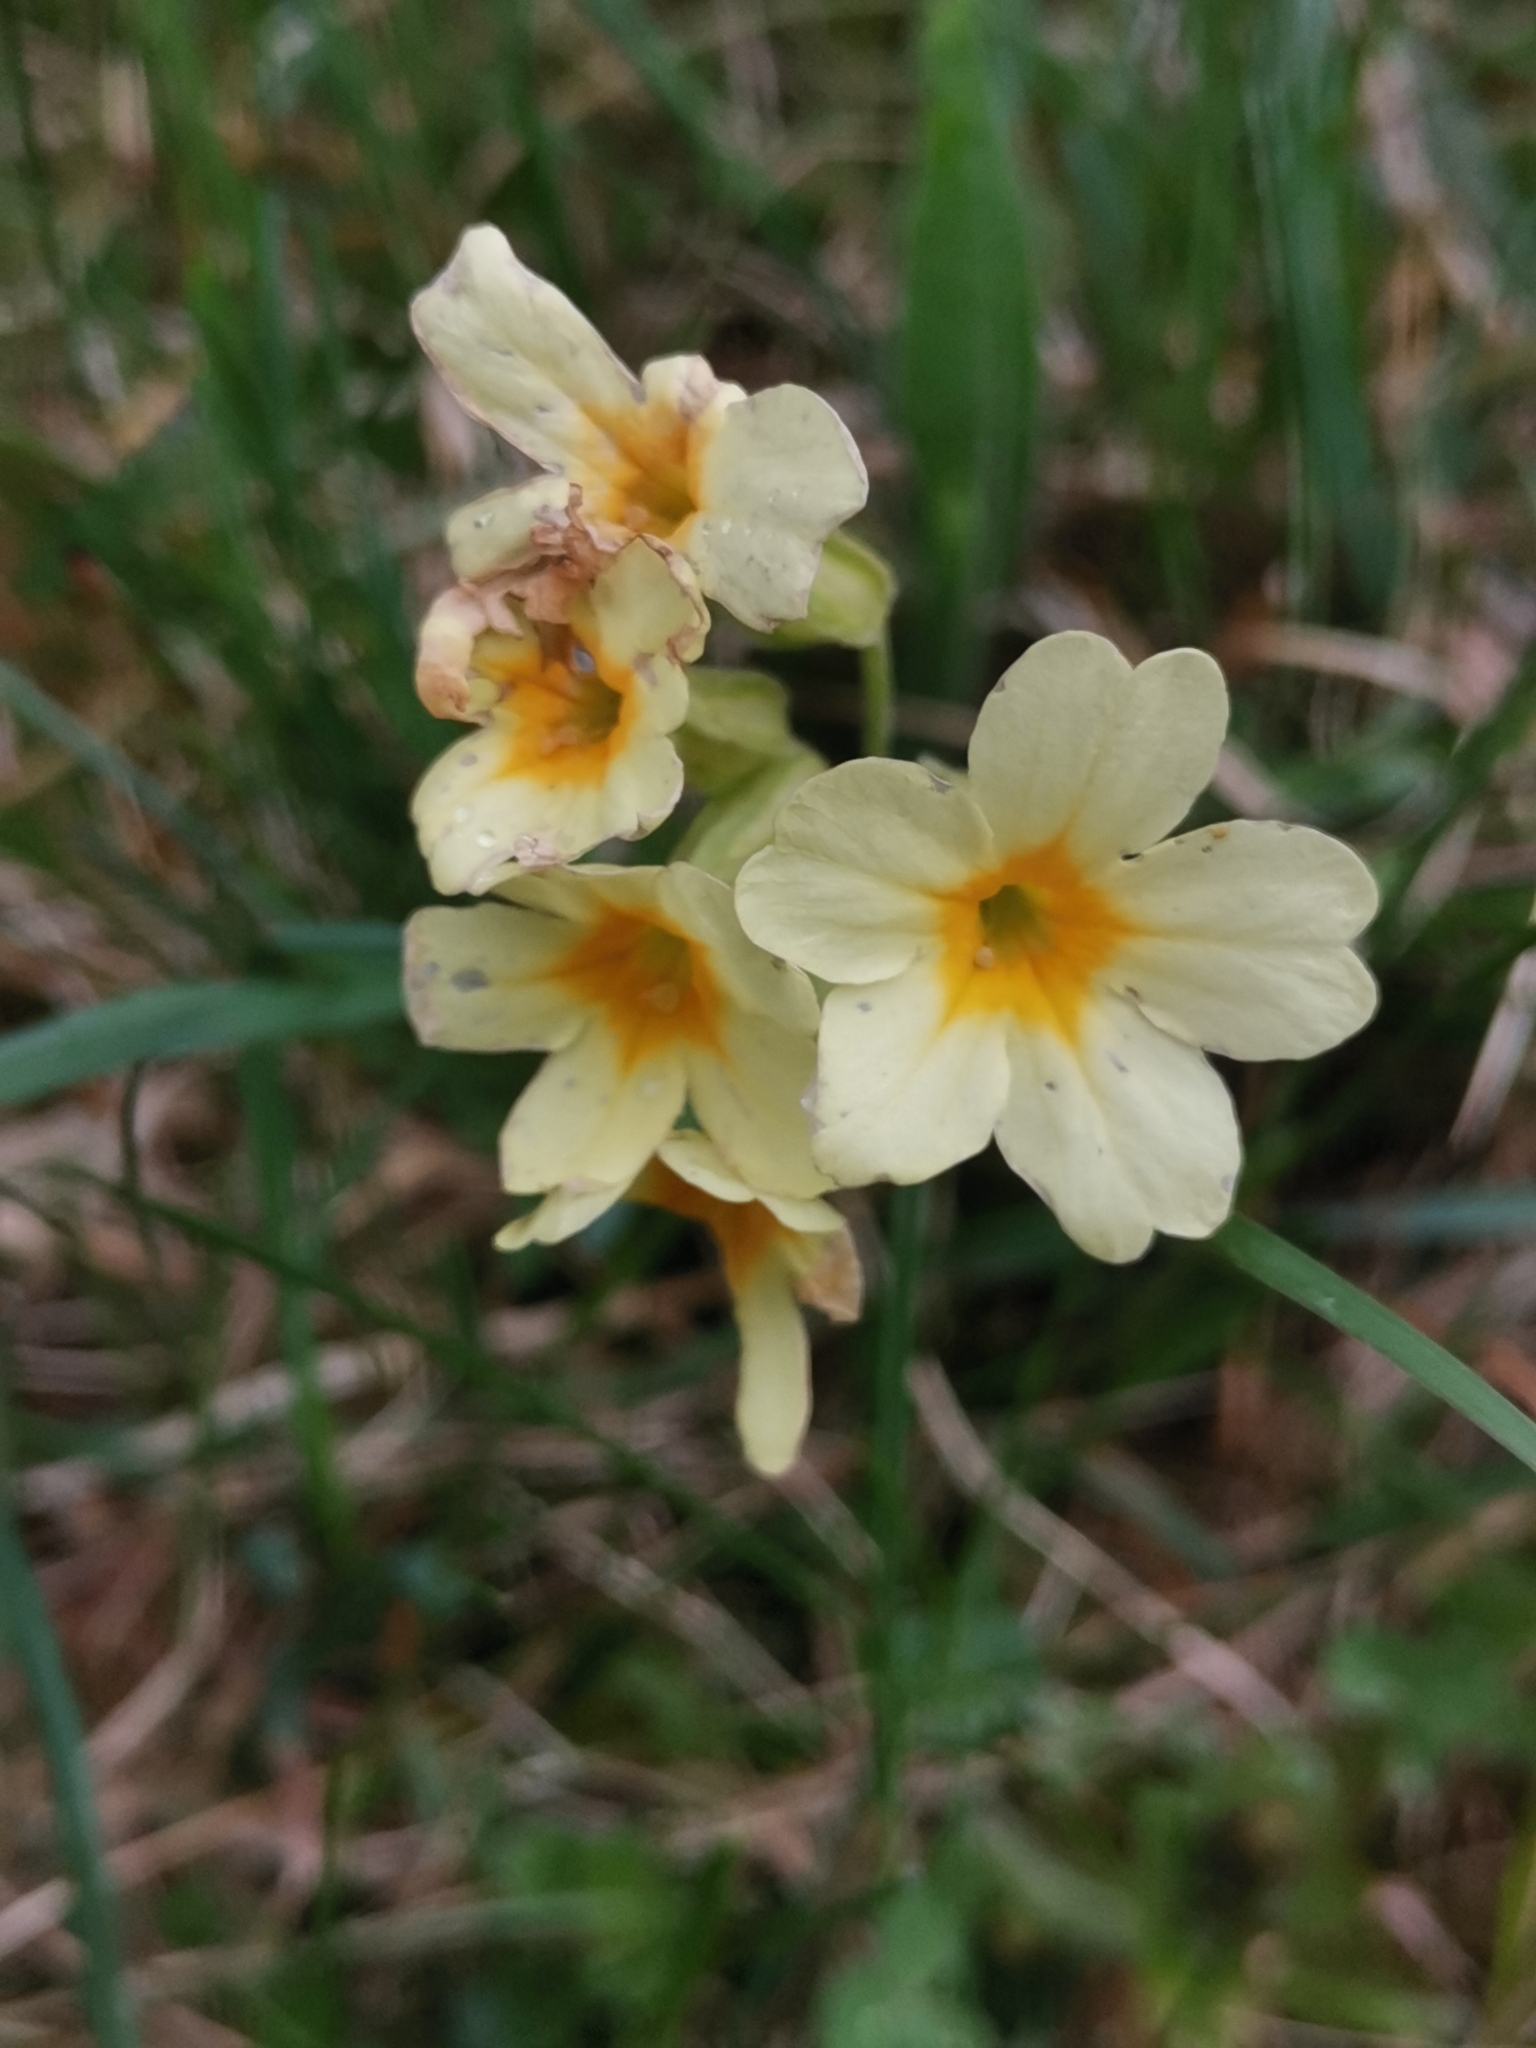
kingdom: Plantae
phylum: Tracheophyta
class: Magnoliopsida
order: Ericales
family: Primulaceae
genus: Primula
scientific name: Primula vulgaris
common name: Primrose
